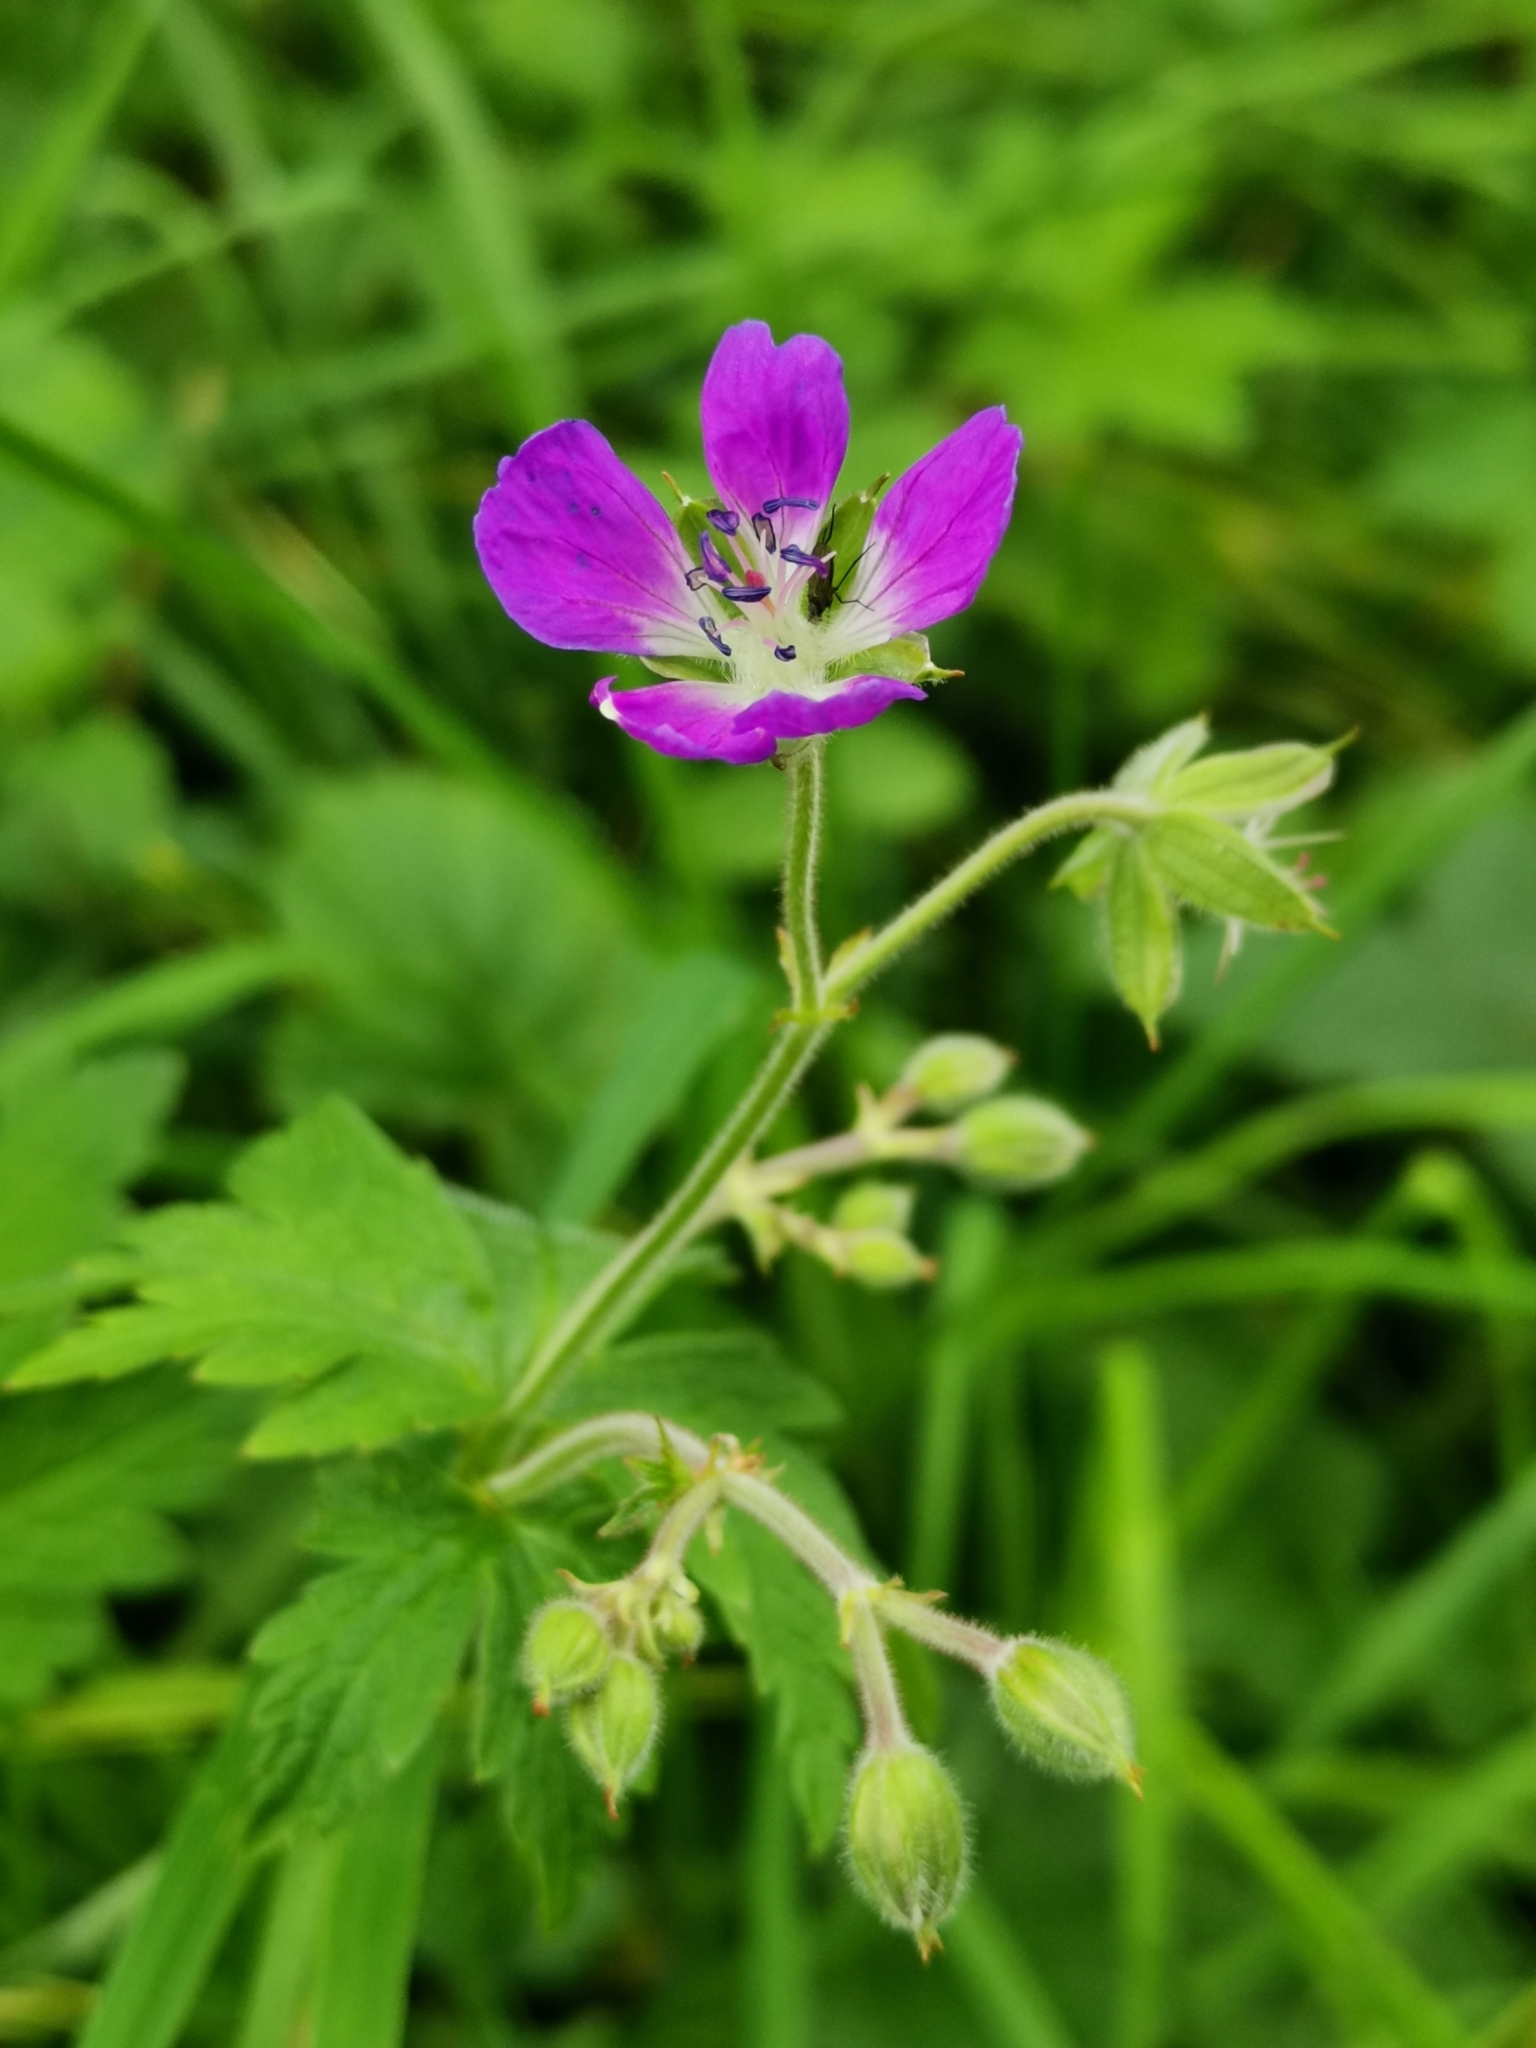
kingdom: Plantae
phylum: Tracheophyta
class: Magnoliopsida
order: Geraniales
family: Geraniaceae
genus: Geranium
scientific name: Geranium sylvaticum
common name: Wood crane's-bill
